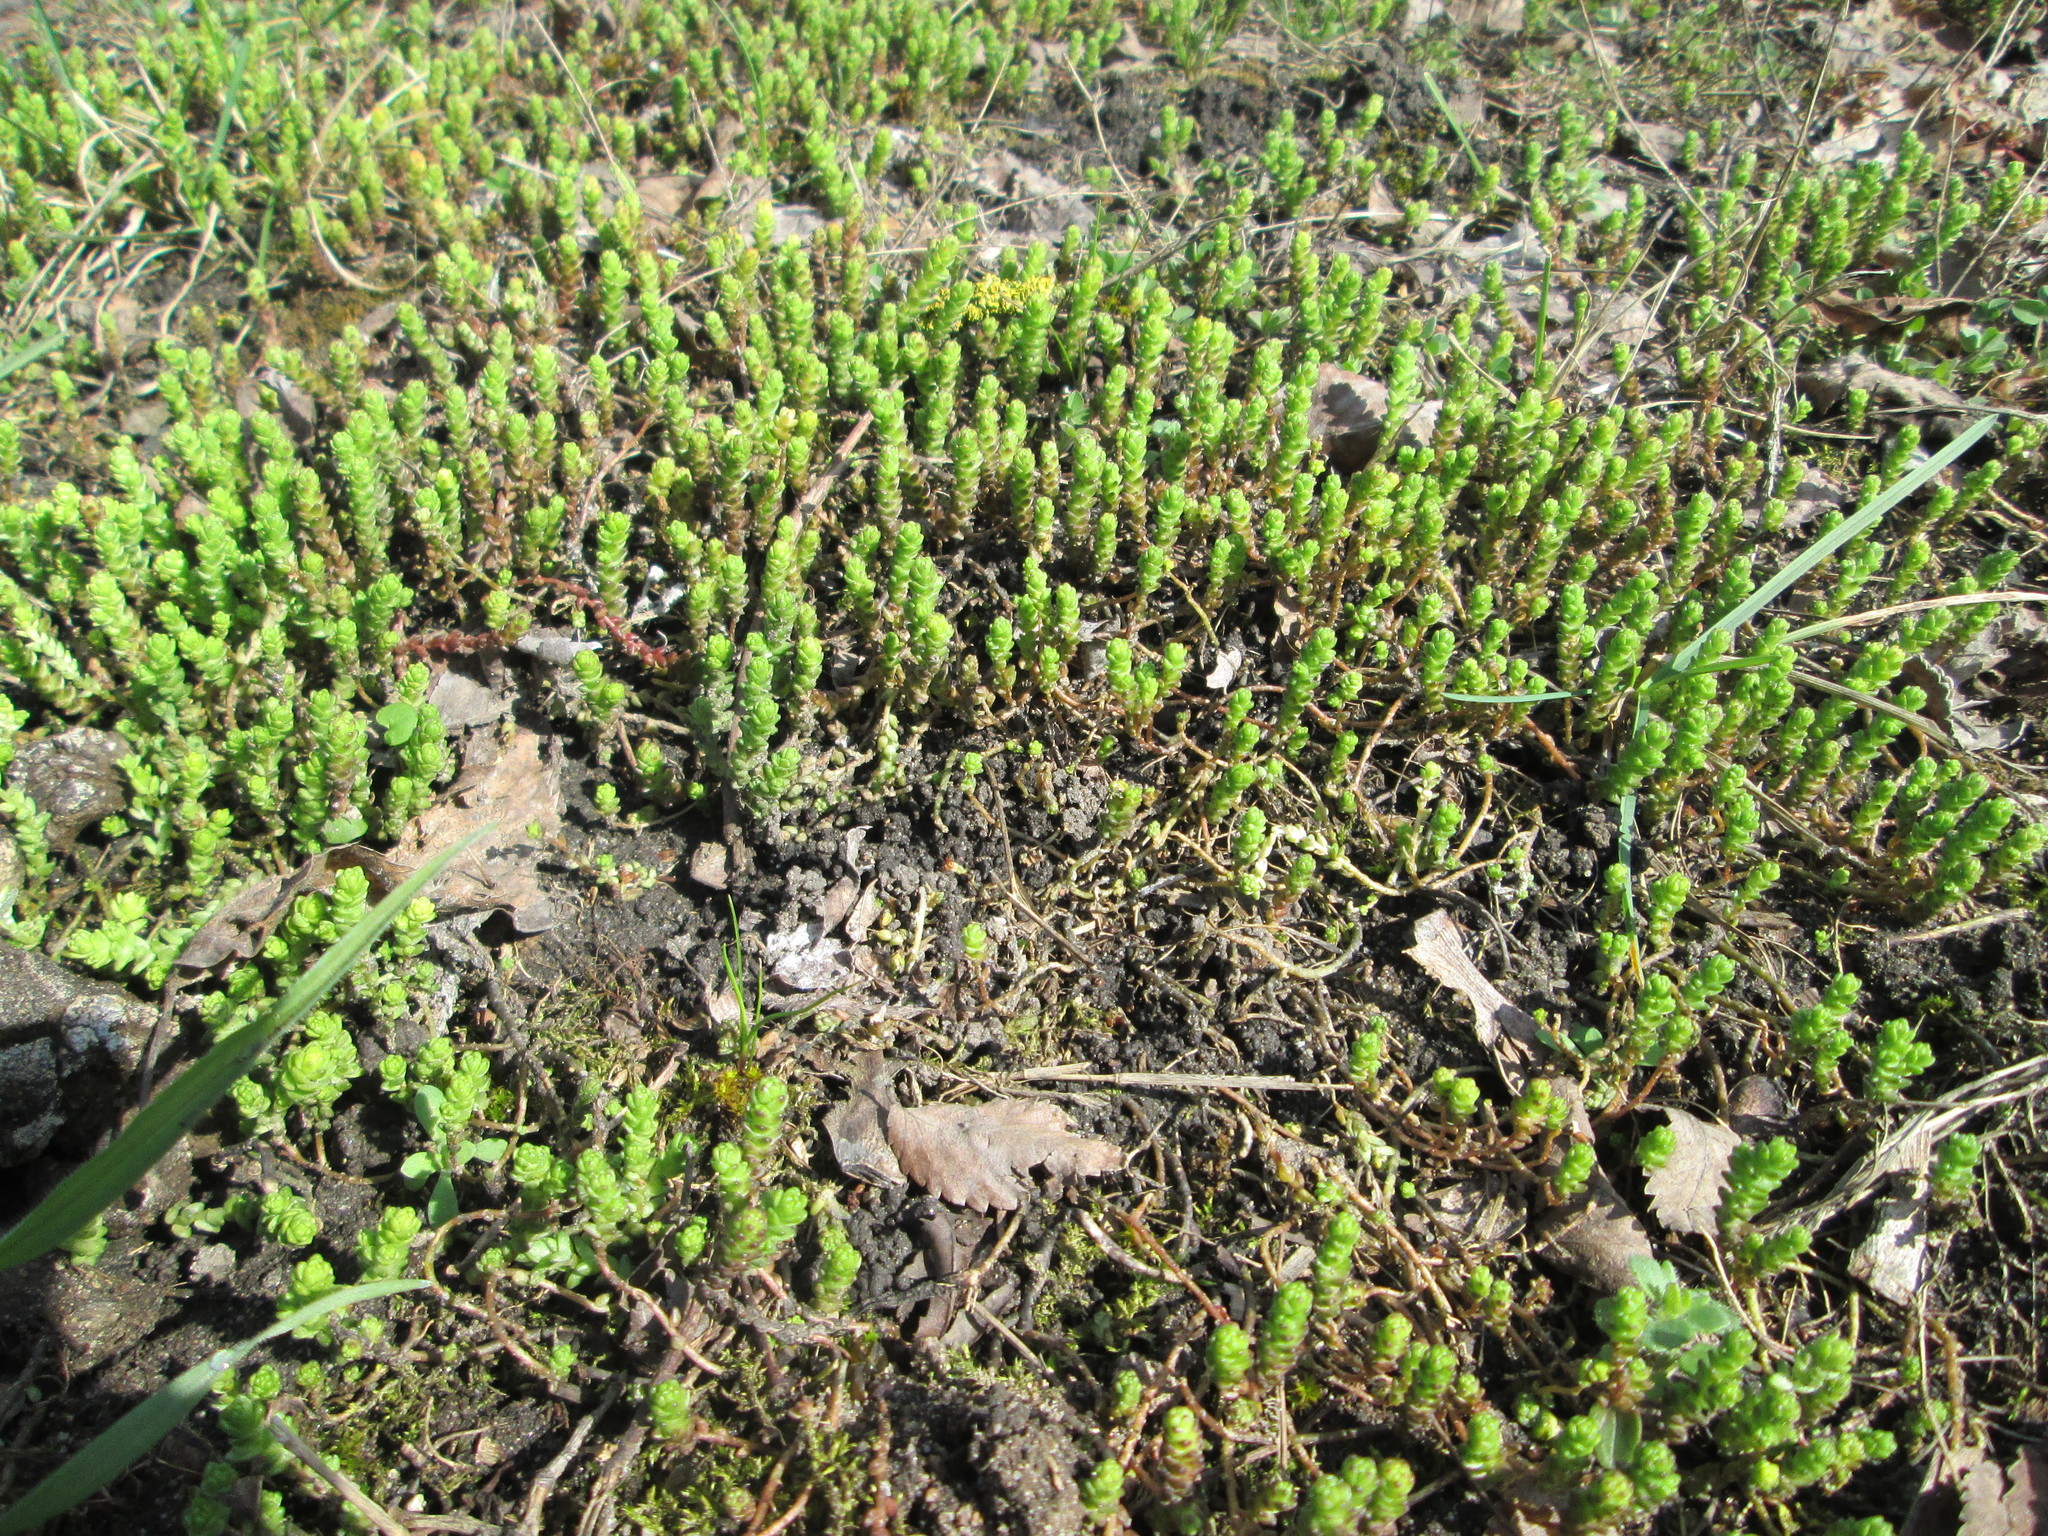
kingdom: Plantae
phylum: Tracheophyta
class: Magnoliopsida
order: Saxifragales
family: Crassulaceae
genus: Sedum
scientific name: Sedum acre
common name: Biting stonecrop
